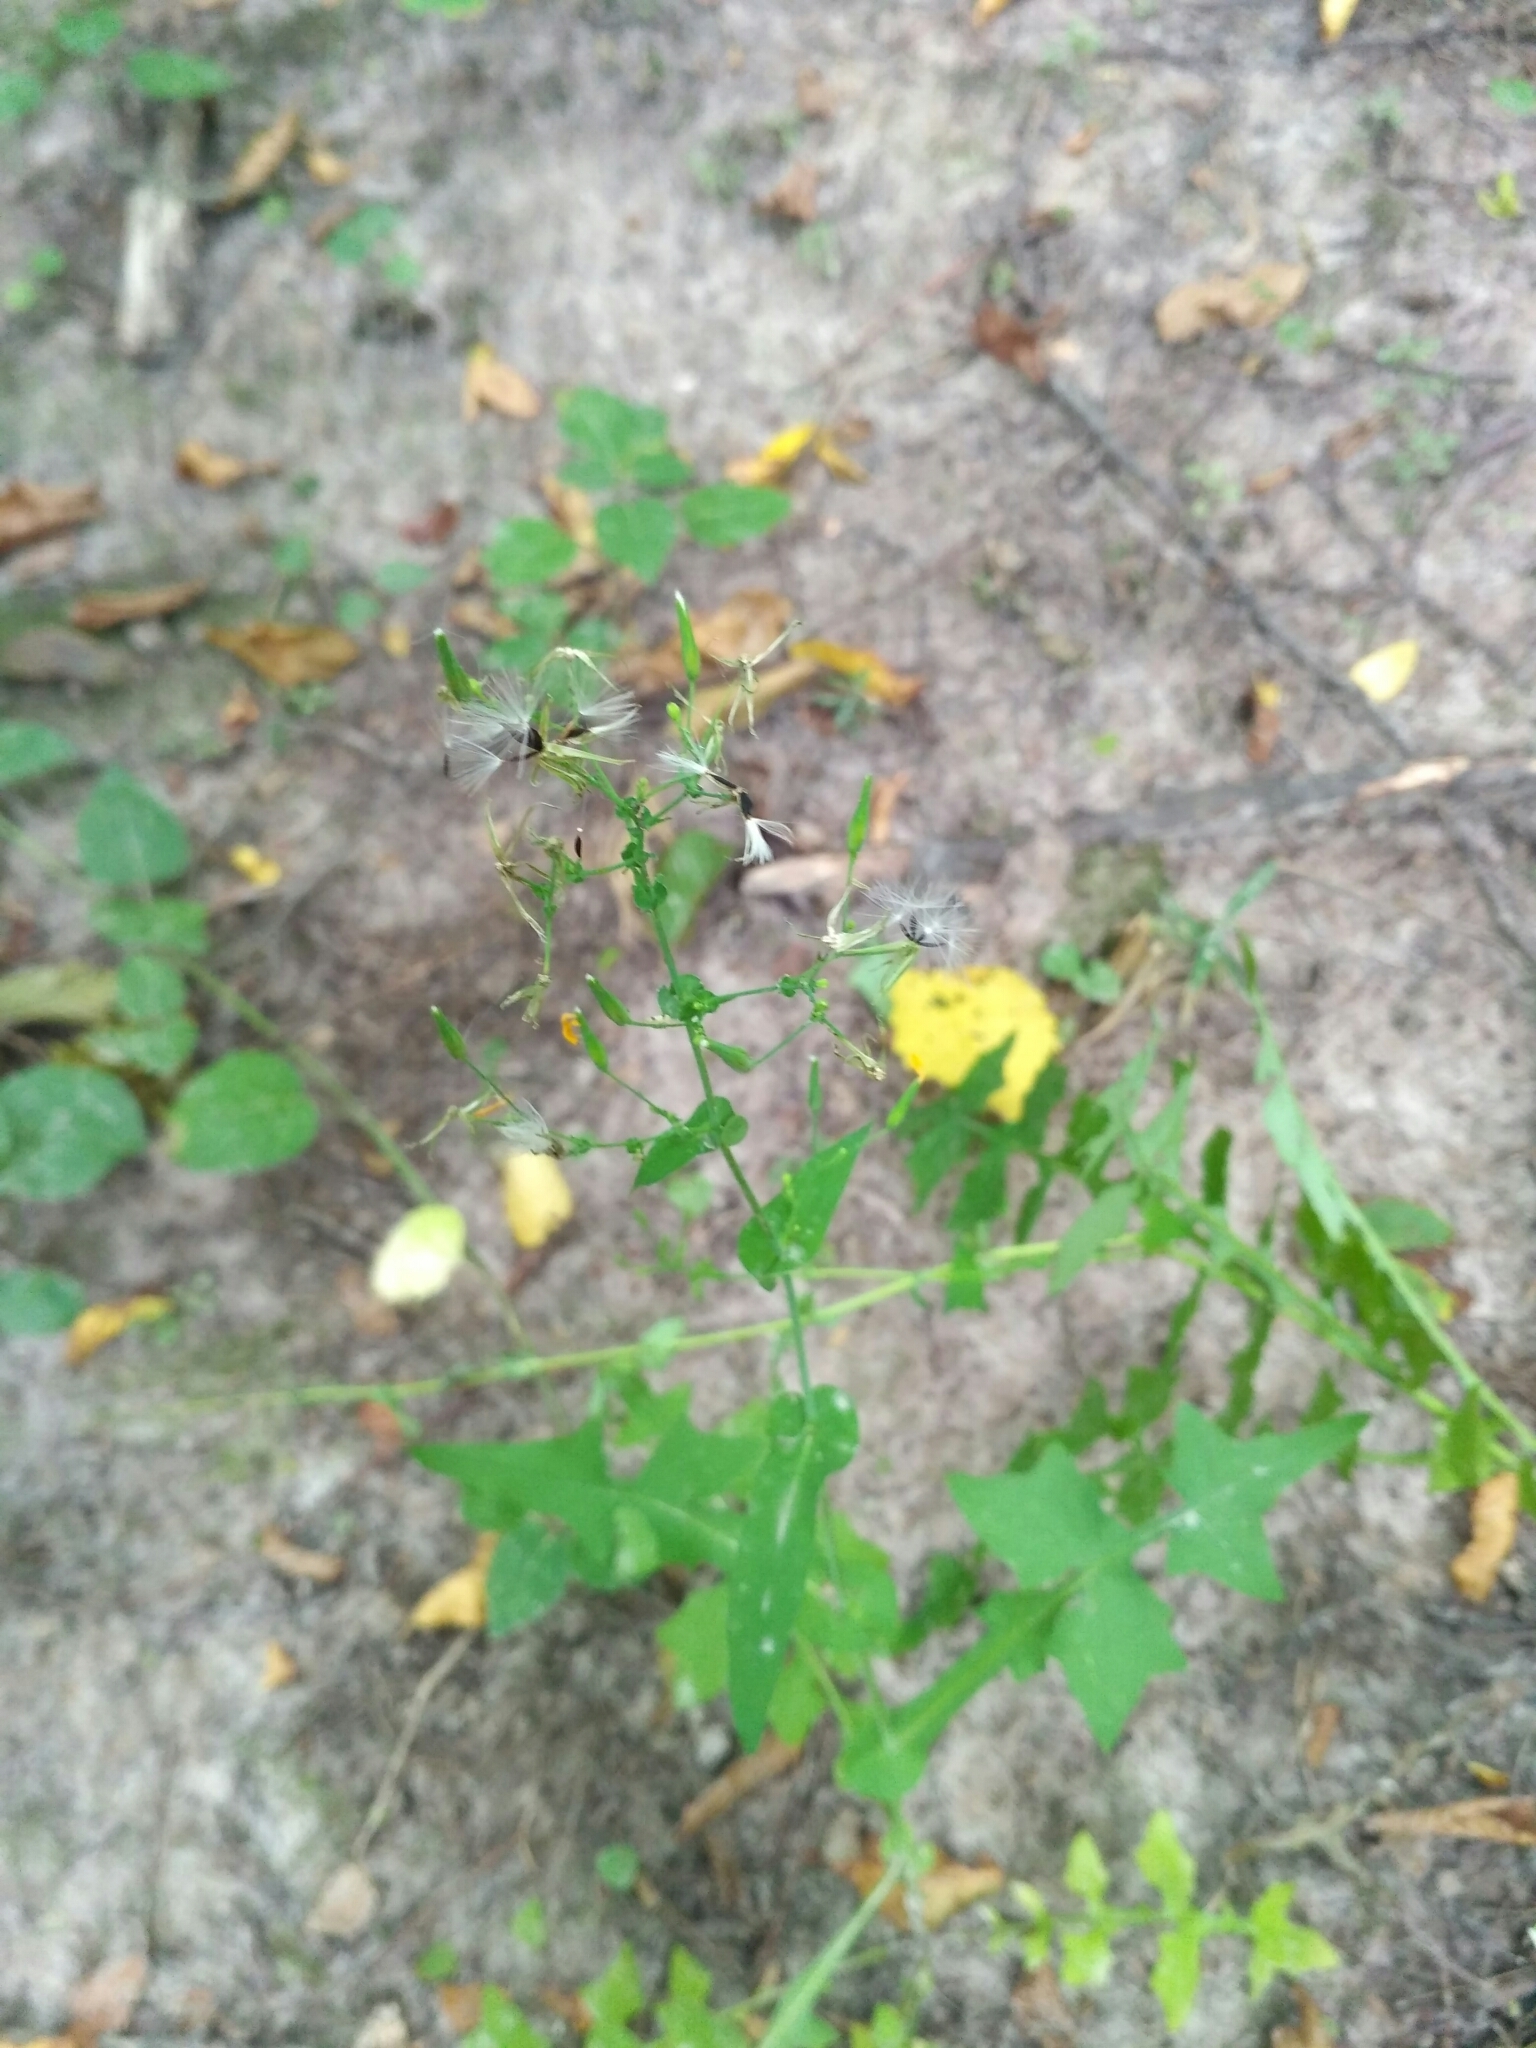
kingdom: Plantae
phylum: Tracheophyta
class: Magnoliopsida
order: Asterales
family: Asteraceae
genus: Mycelis
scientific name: Mycelis muralis
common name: Wall lettuce
